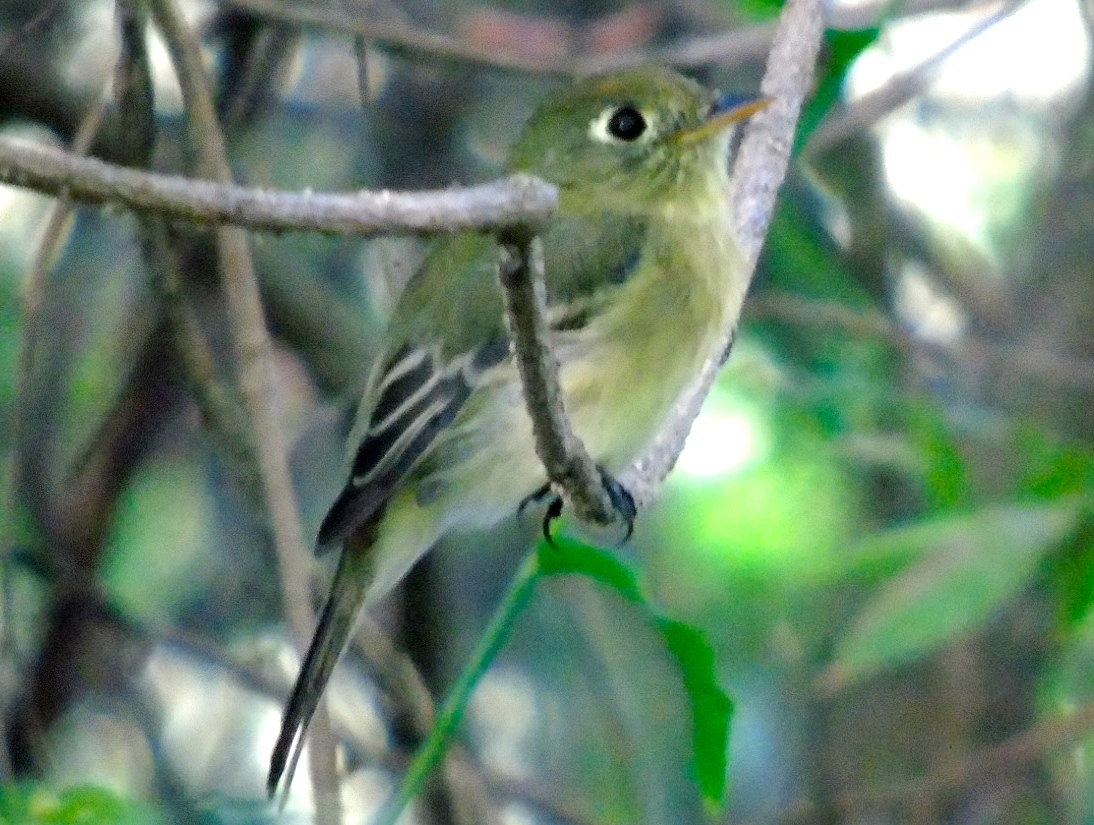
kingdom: Animalia
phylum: Chordata
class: Aves
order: Passeriformes
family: Tyrannidae
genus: Empidonax
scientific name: Empidonax difficilis
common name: Pacific-slope flycatcher
